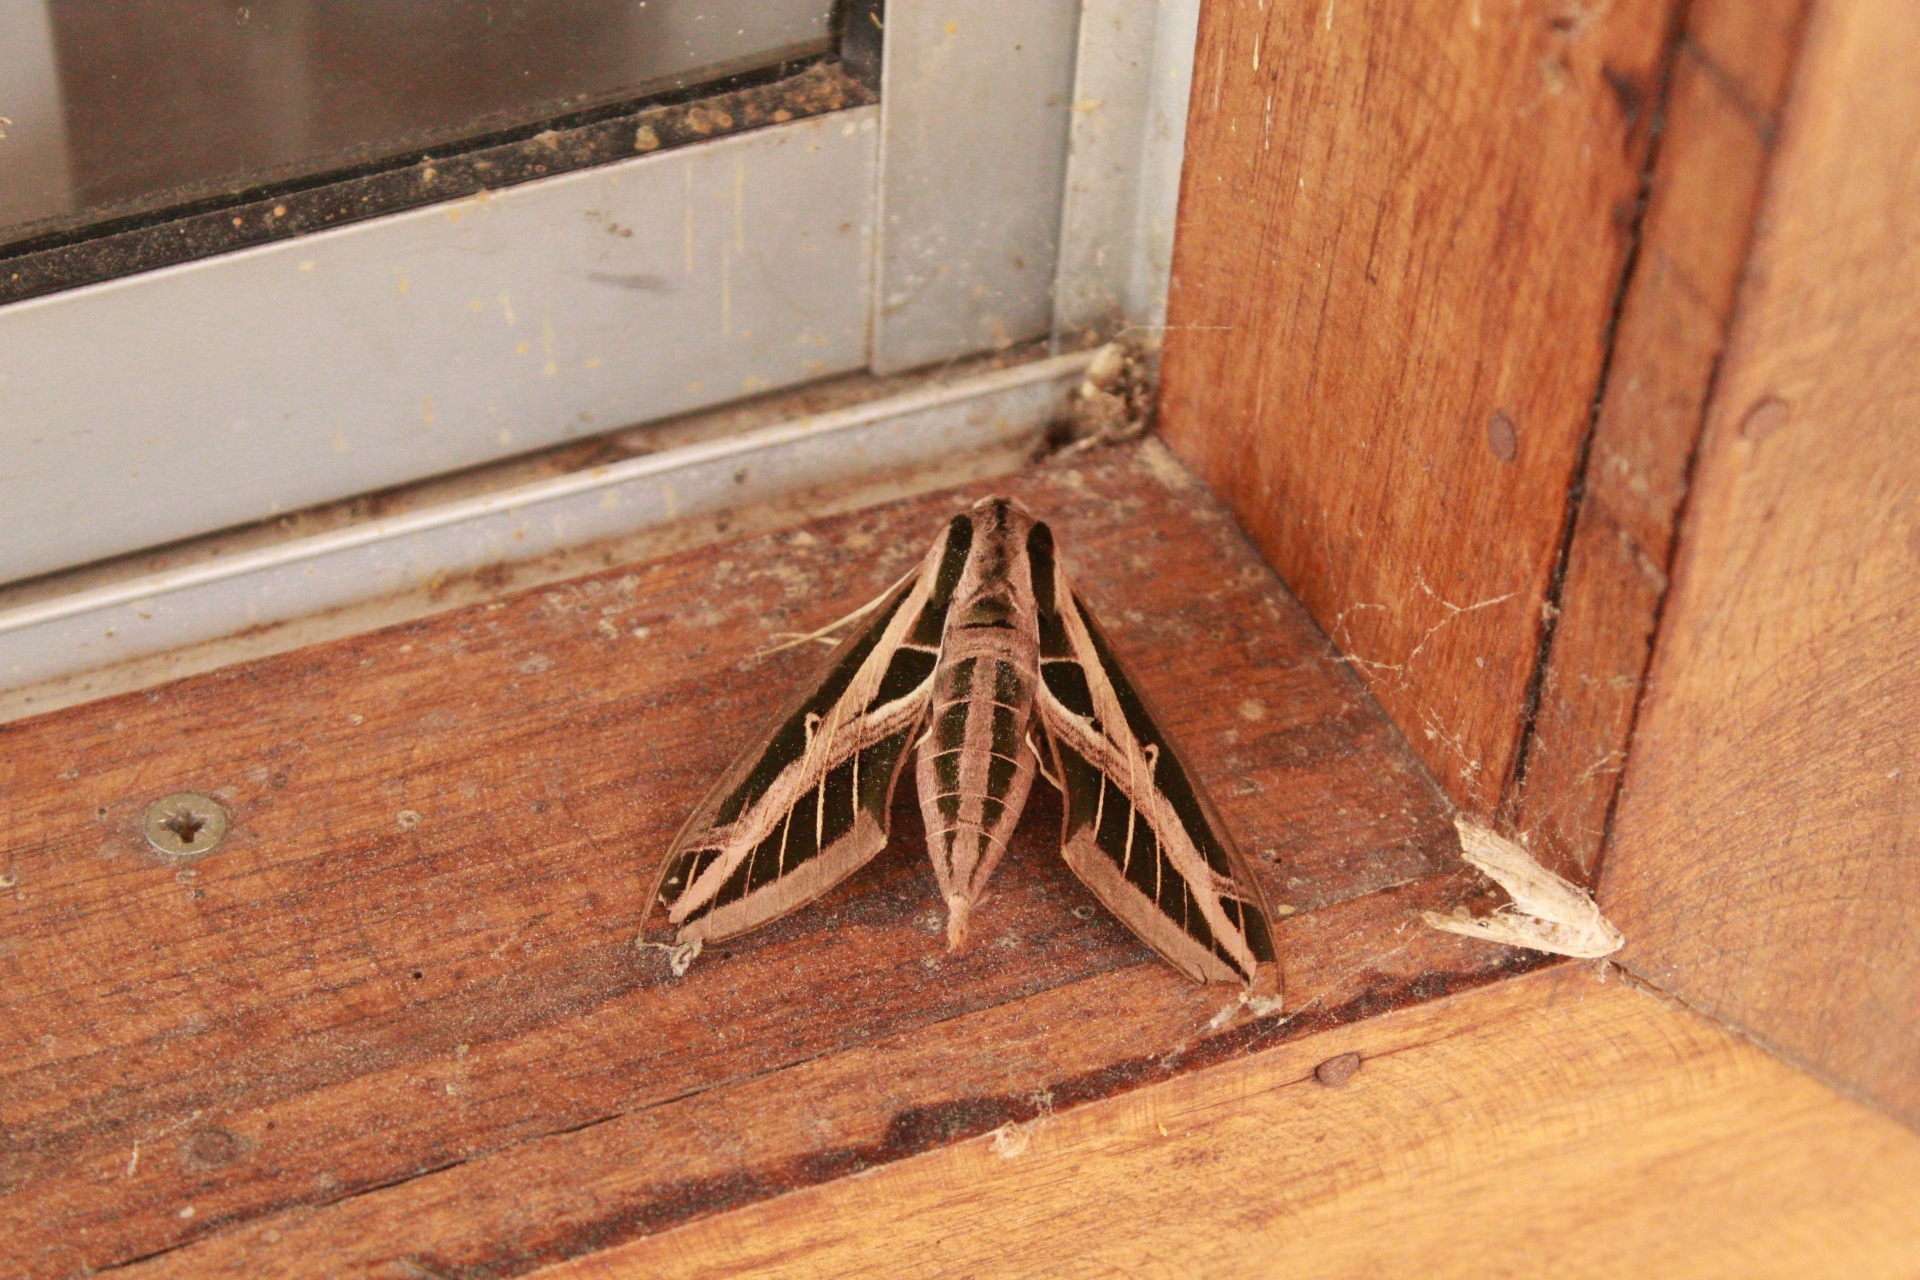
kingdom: Animalia
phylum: Arthropoda
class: Insecta
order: Lepidoptera
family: Sphingidae
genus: Eumorpha
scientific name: Eumorpha fasciatus
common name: Banded sphinx
